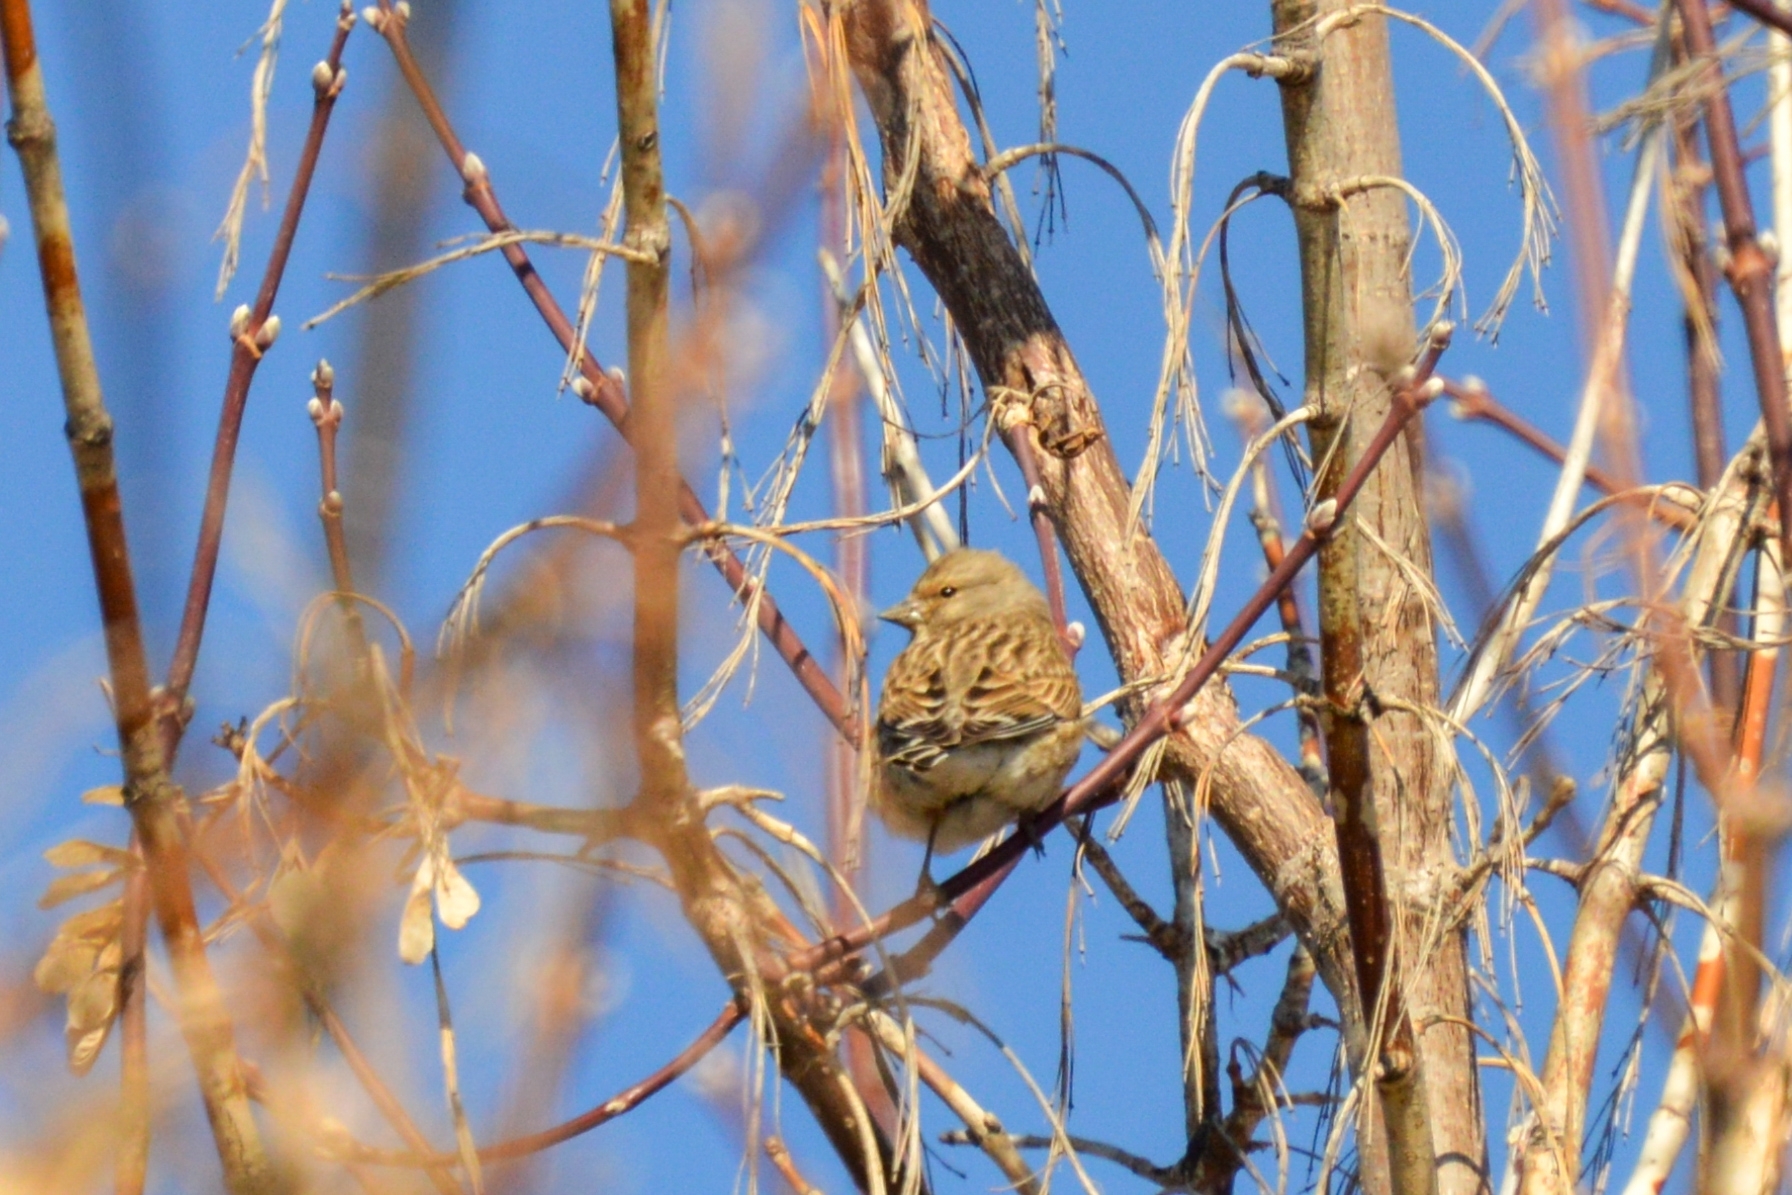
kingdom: Animalia
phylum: Chordata
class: Aves
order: Passeriformes
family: Fringillidae
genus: Linaria
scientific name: Linaria cannabina
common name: Common linnet
